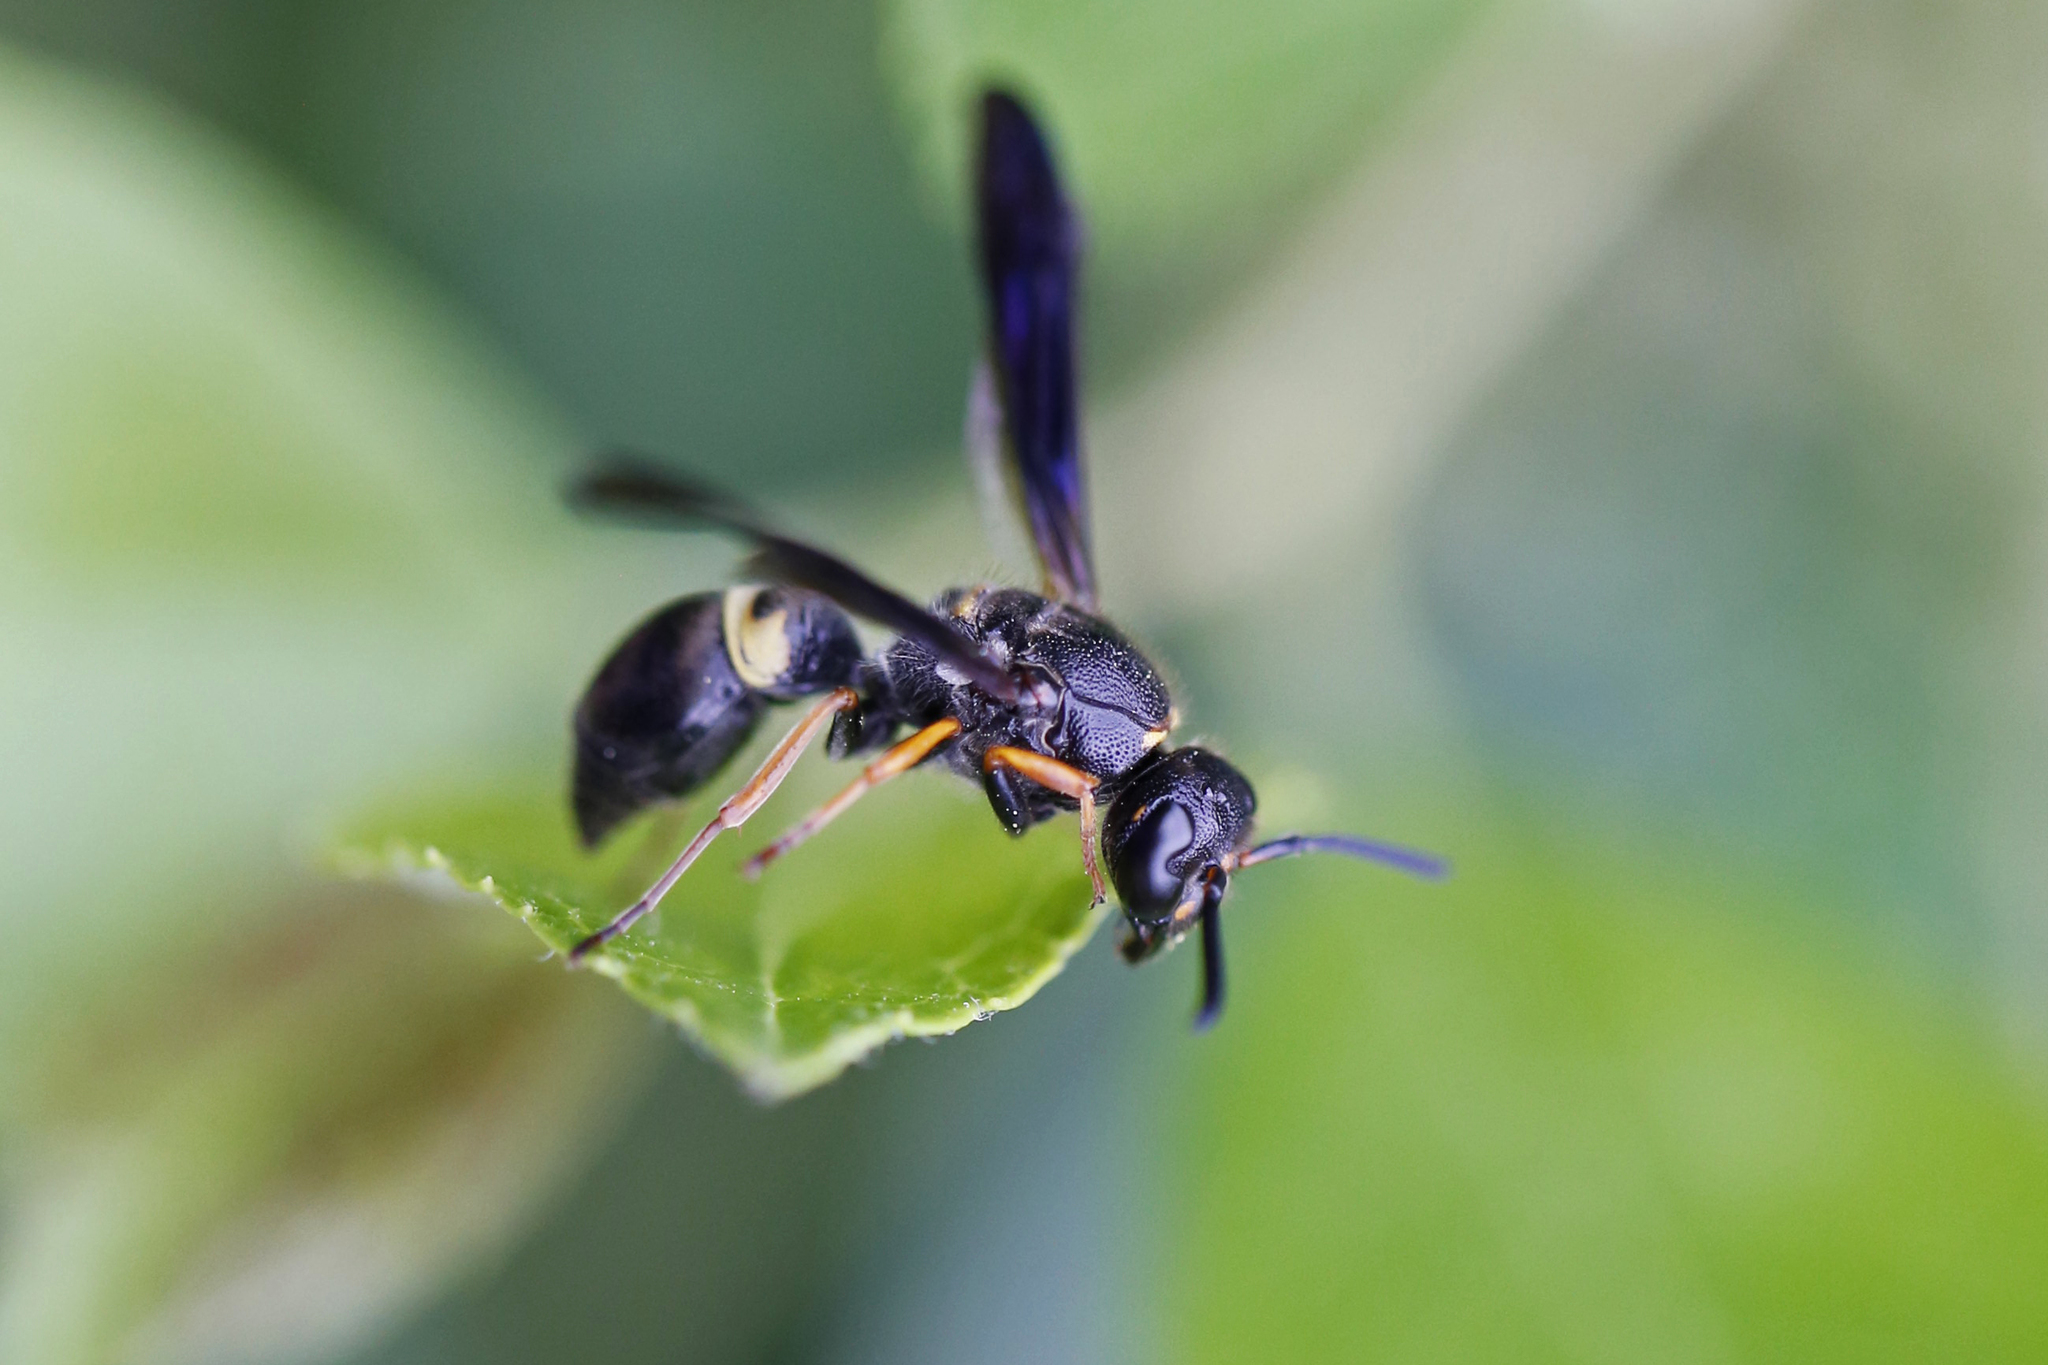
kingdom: Animalia
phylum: Arthropoda
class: Insecta
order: Hymenoptera
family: Vespidae
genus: Ancistrocerus
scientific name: Ancistrocerus unifasciatus
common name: One-banded mason wasp
